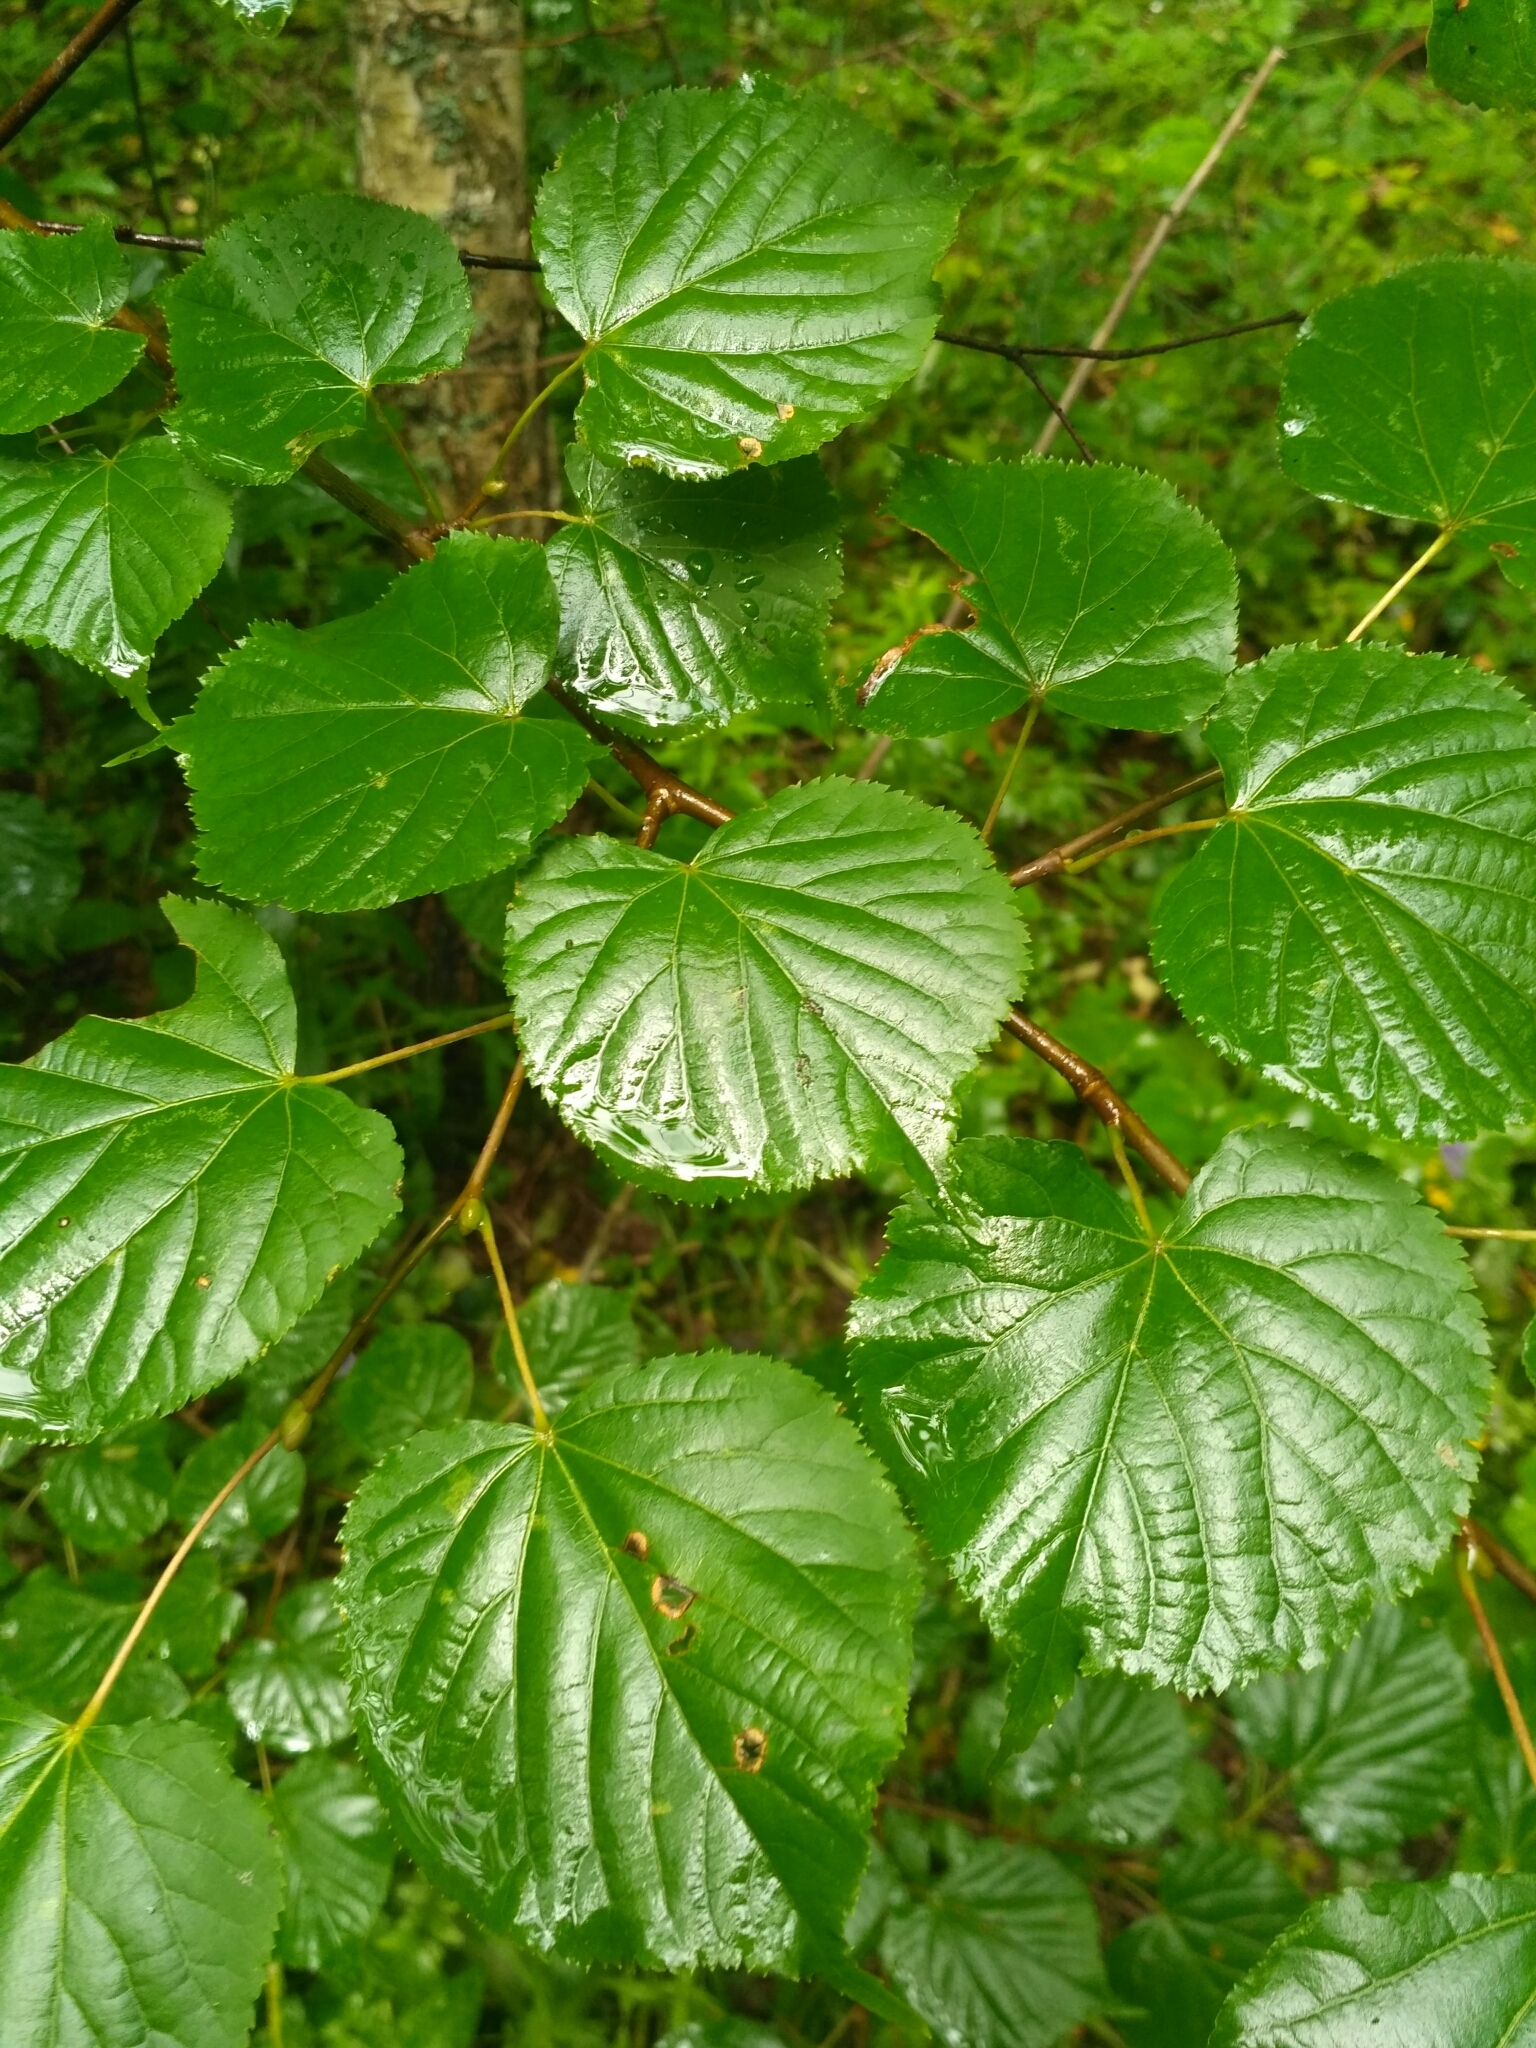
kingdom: Plantae
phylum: Tracheophyta
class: Magnoliopsida
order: Malvales
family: Malvaceae
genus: Tilia
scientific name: Tilia cordata
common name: Small-leaved lime
